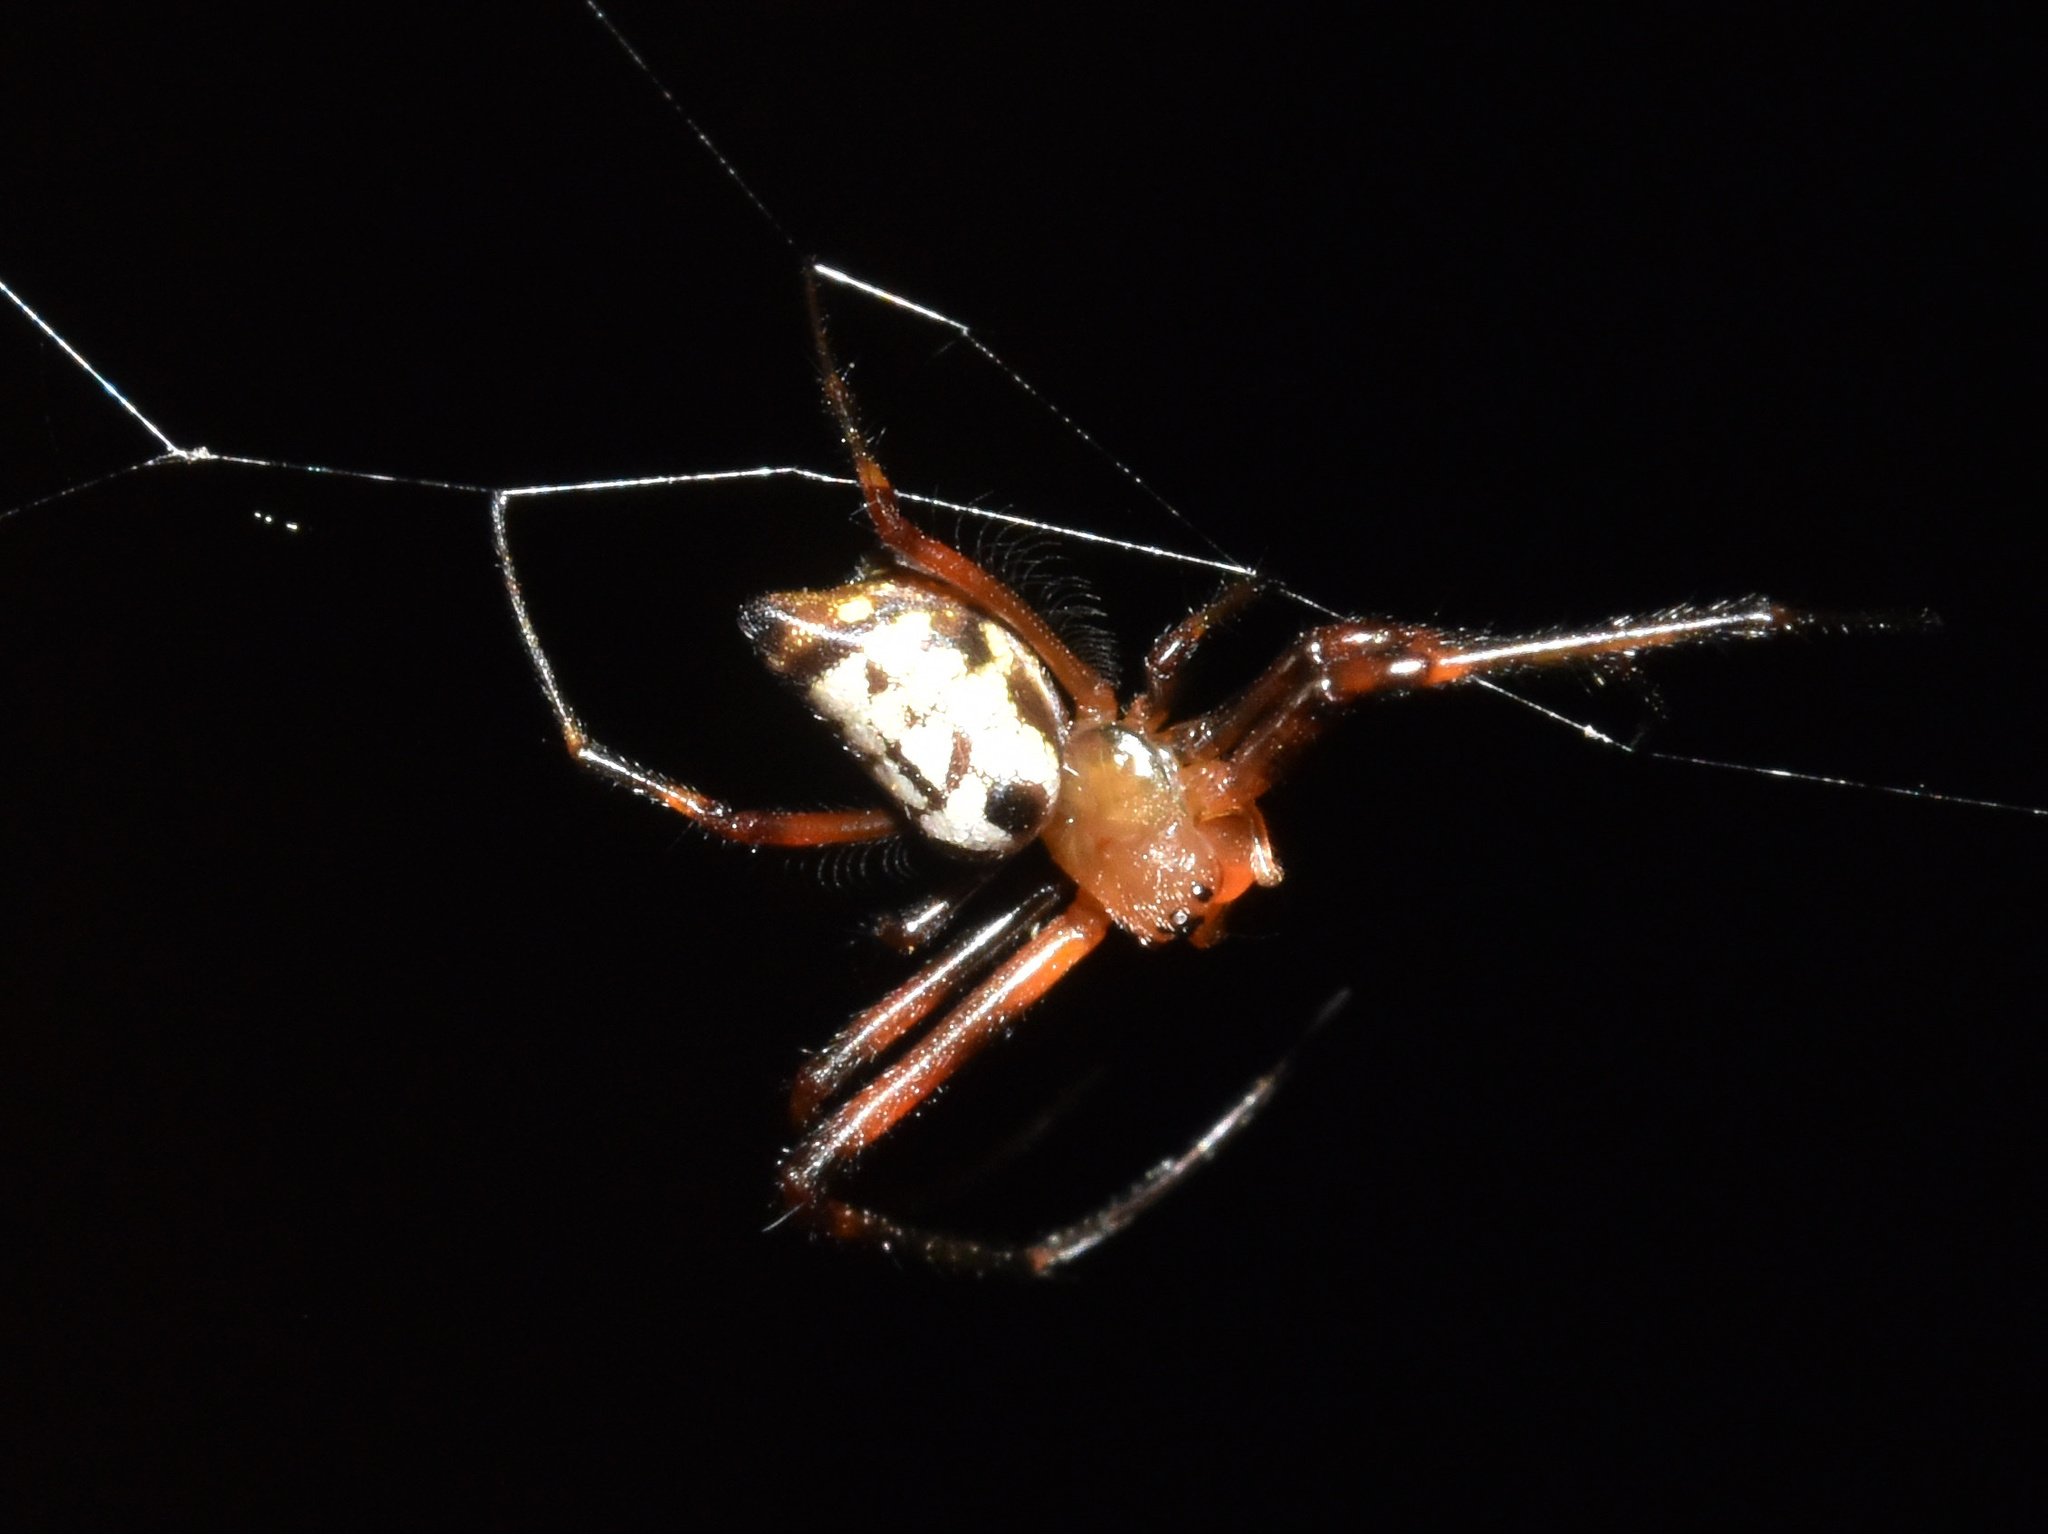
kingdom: Animalia
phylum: Arthropoda
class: Arachnida
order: Araneae
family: Tetragnathidae
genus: Leucauge
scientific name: Leucauge medjensis
